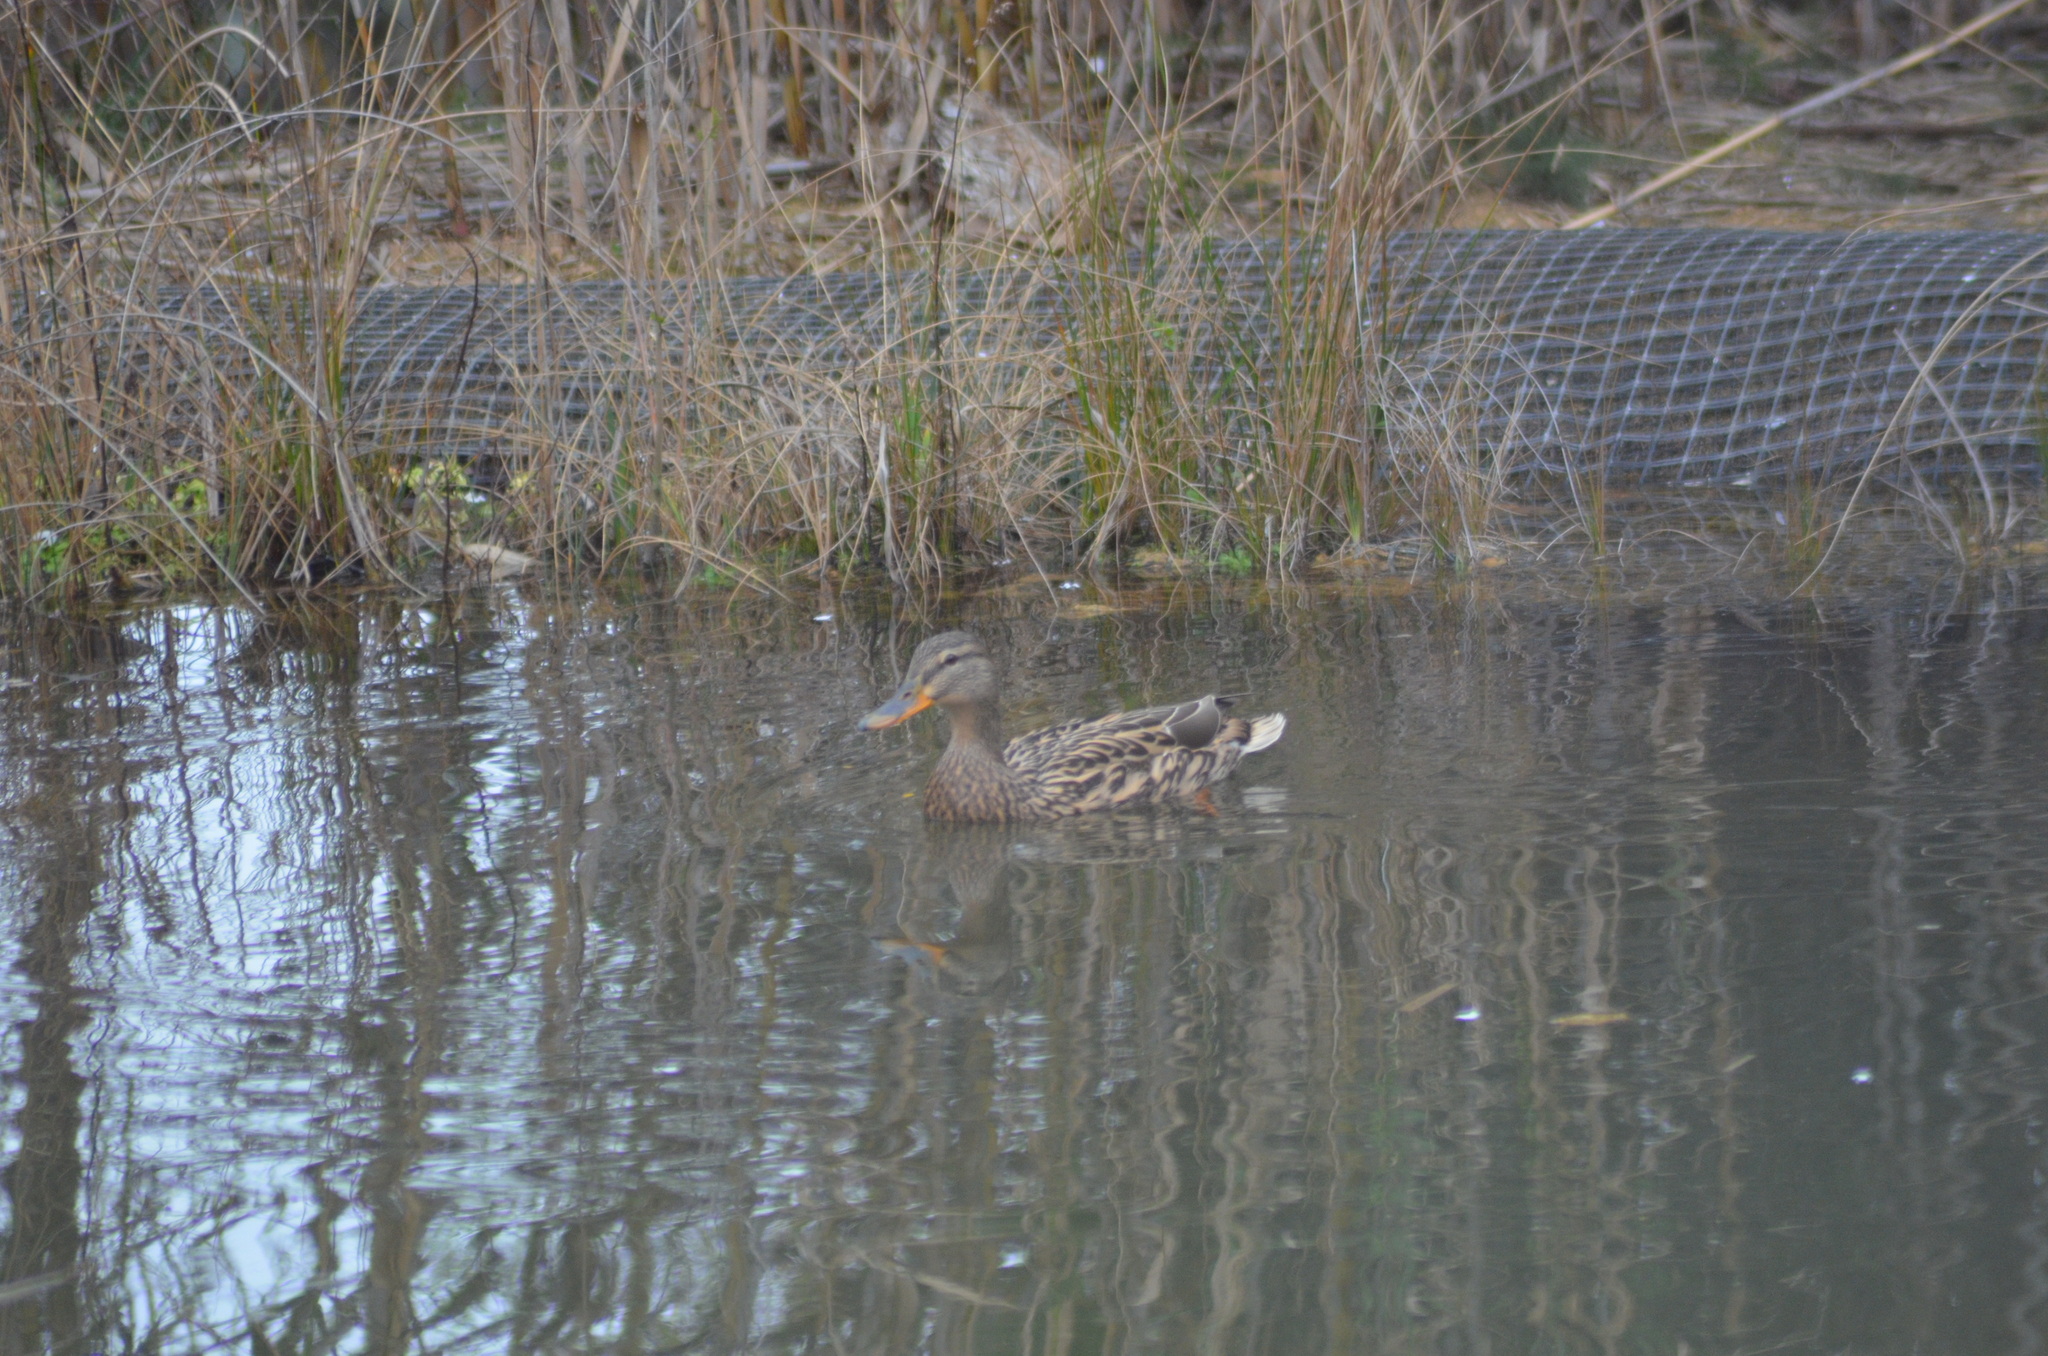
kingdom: Animalia
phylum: Chordata
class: Aves
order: Anseriformes
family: Anatidae
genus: Anas
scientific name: Anas platyrhynchos
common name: Mallard
